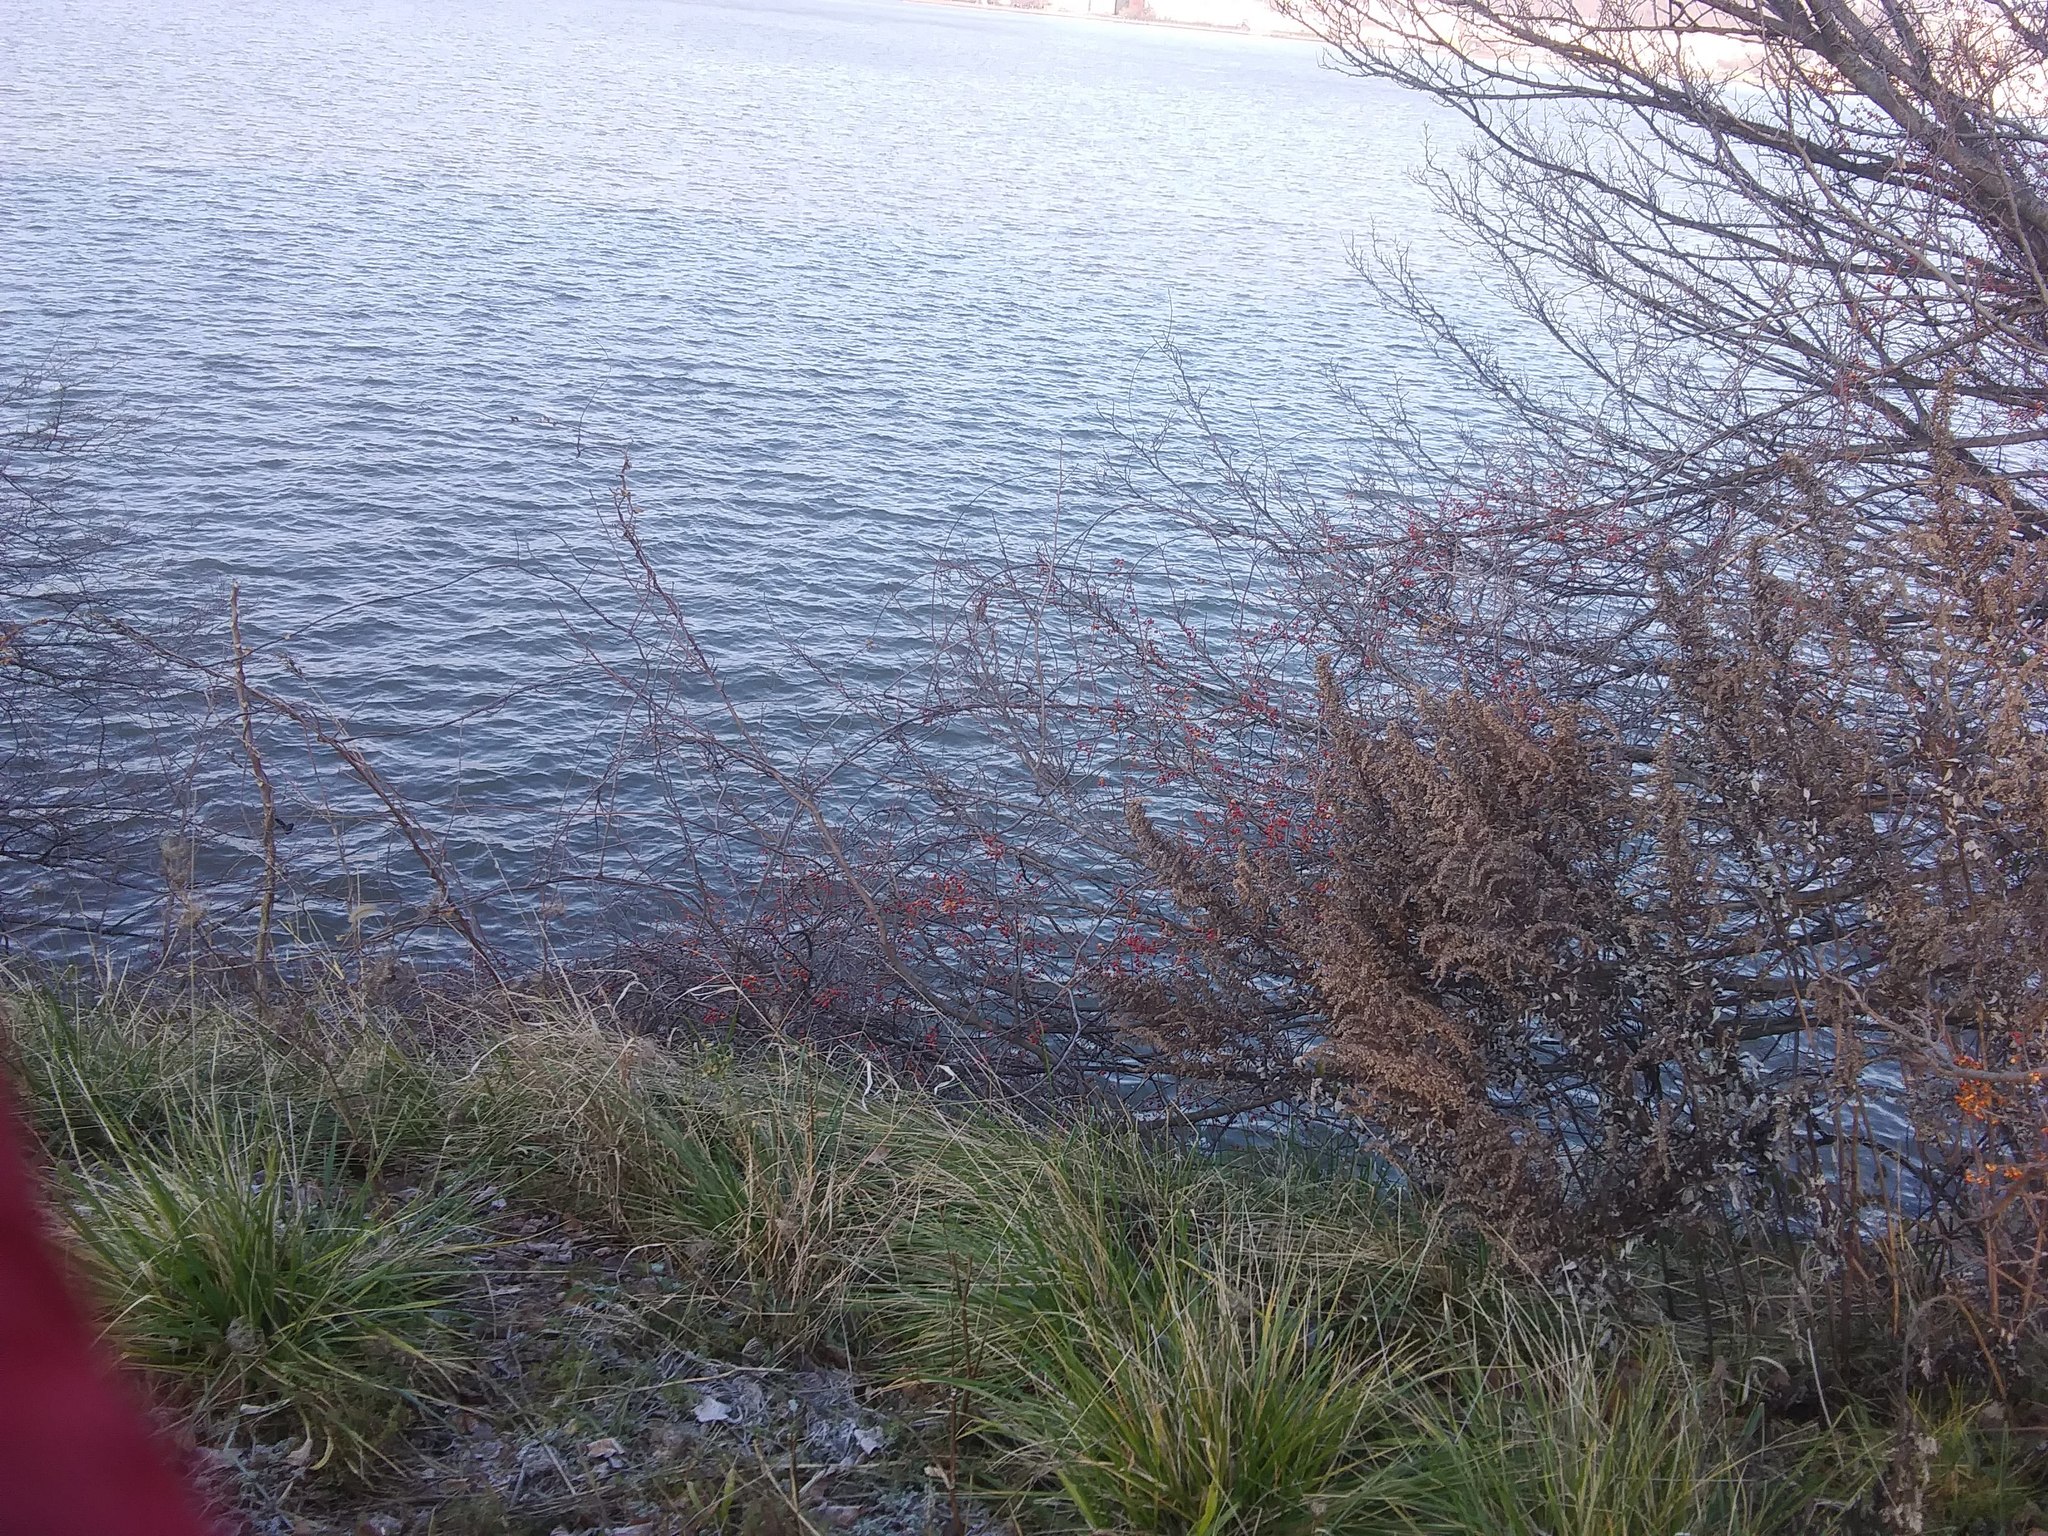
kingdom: Plantae
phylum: Tracheophyta
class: Magnoliopsida
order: Celastrales
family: Celastraceae
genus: Celastrus
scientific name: Celastrus orbiculatus
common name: Oriental bittersweet
